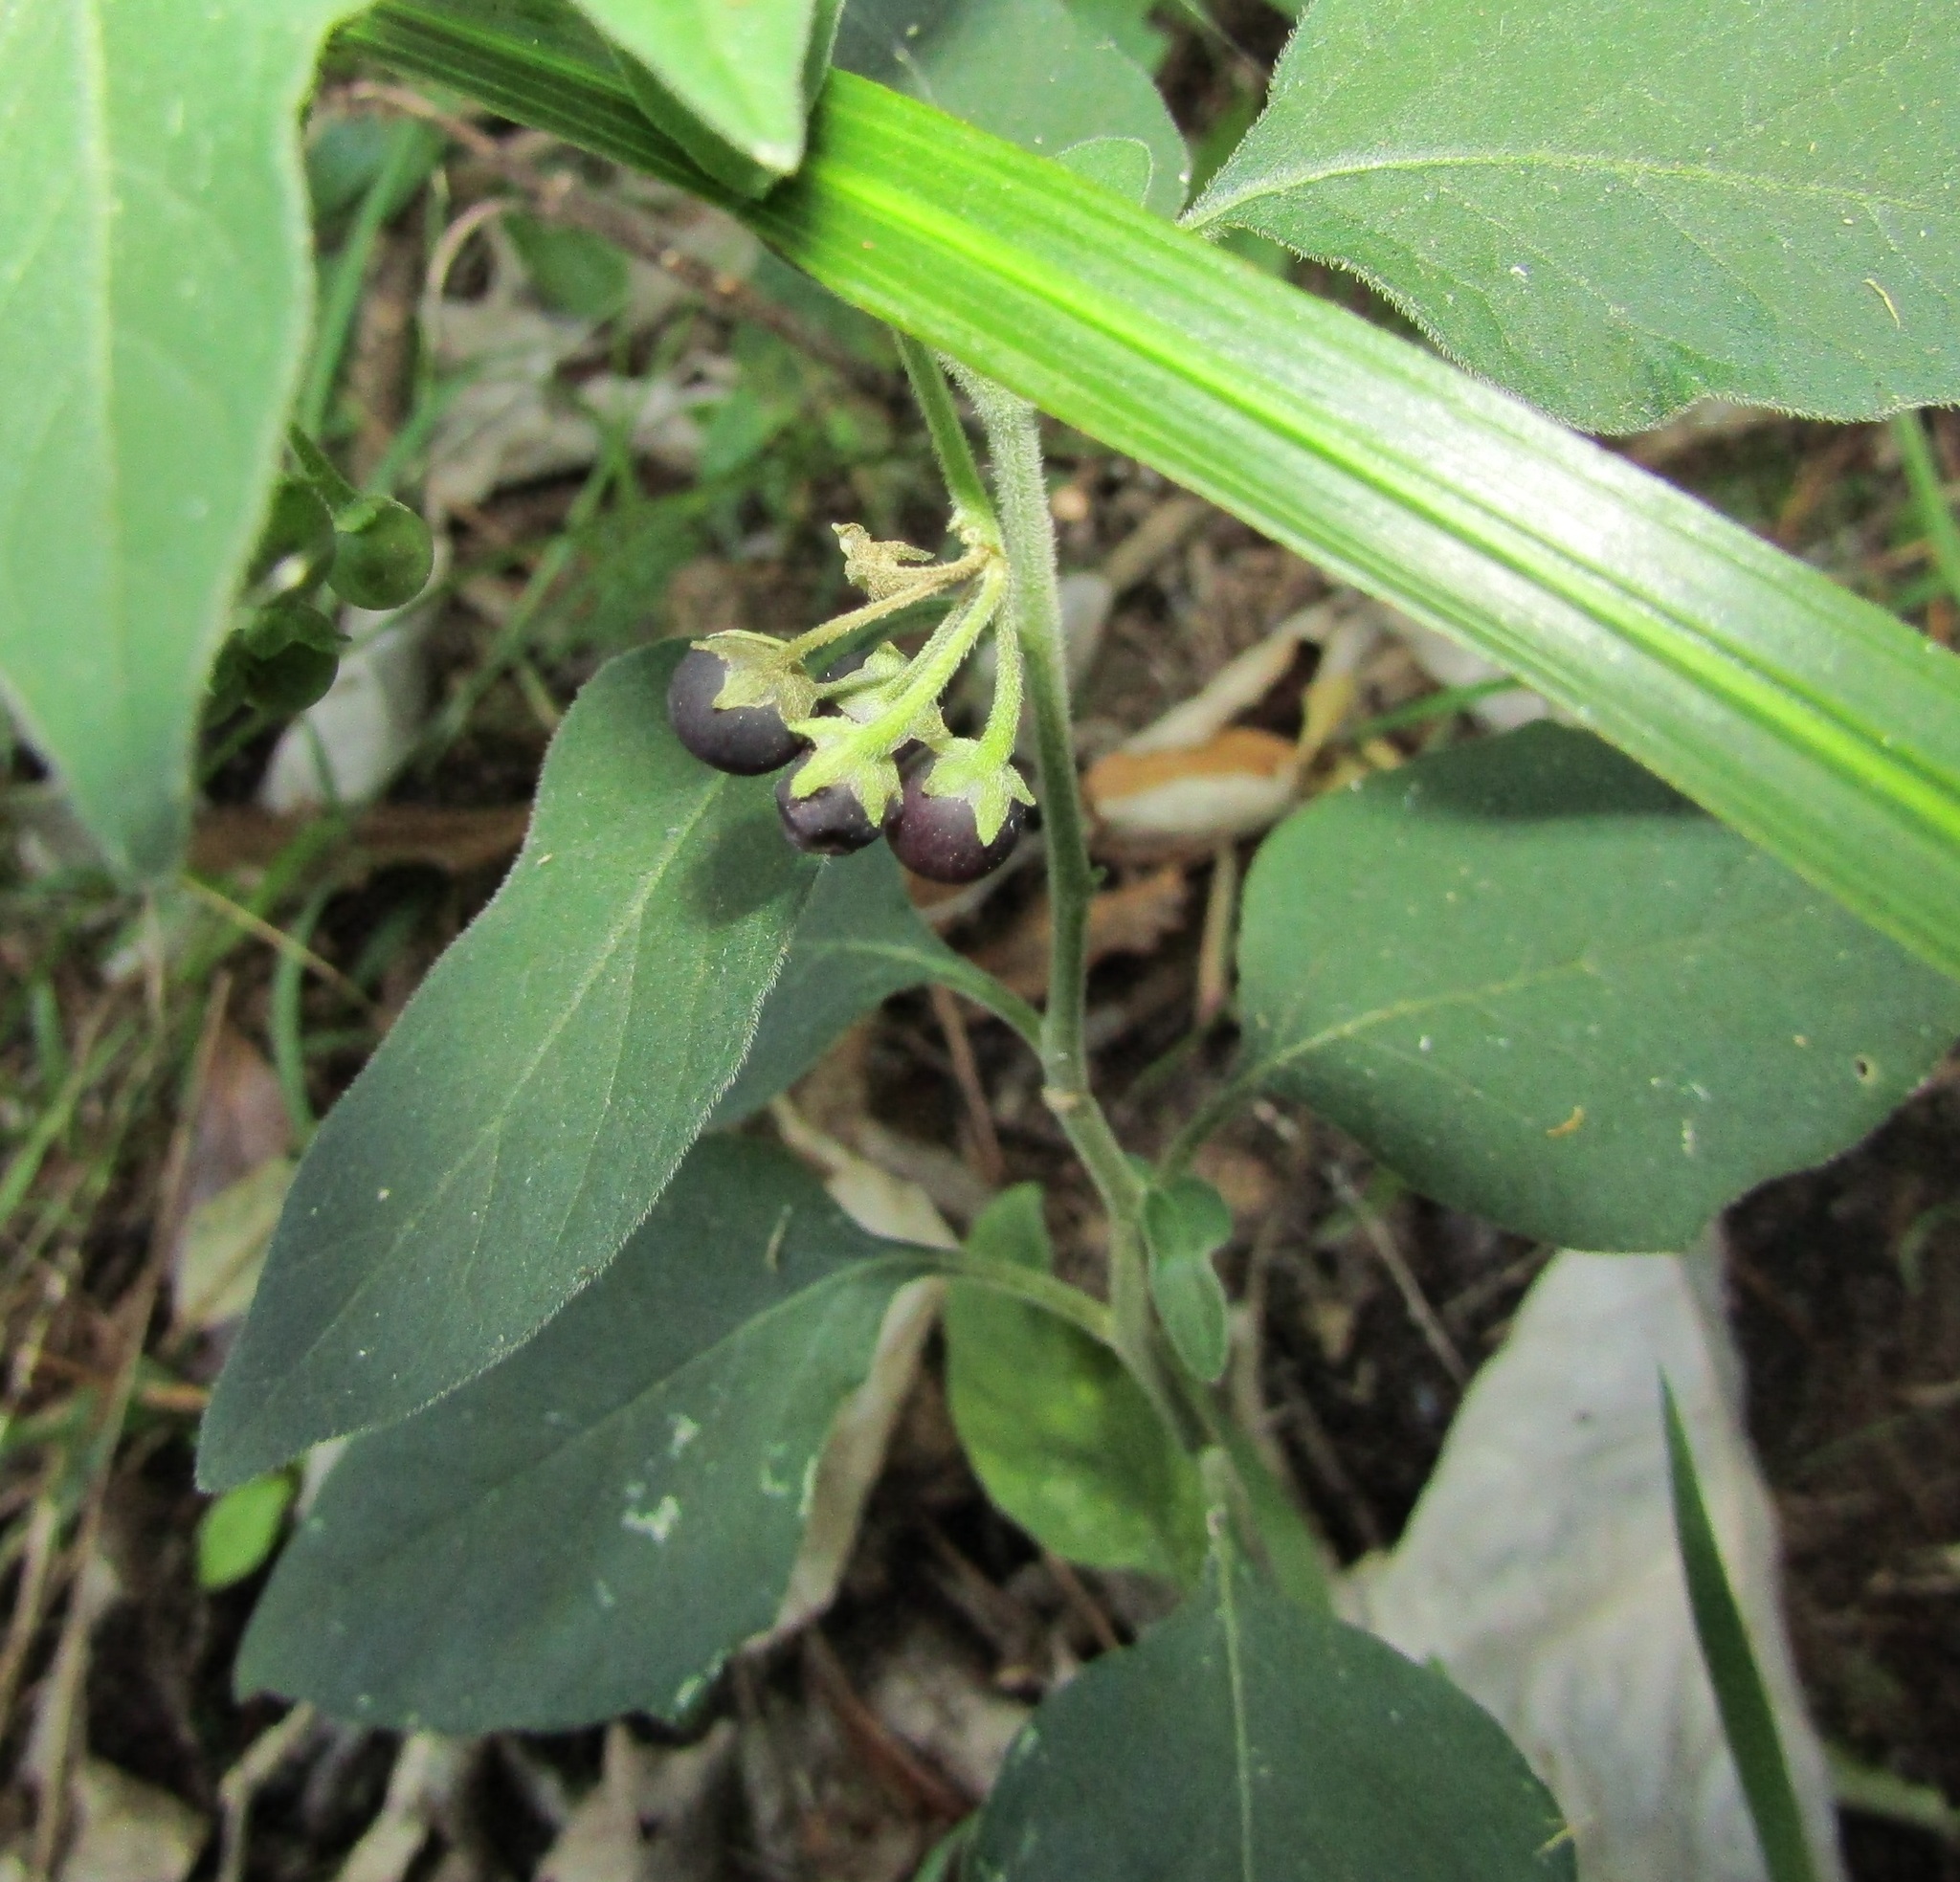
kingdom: Plantae
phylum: Tracheophyta
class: Magnoliopsida
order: Solanales
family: Solanaceae
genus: Solanum
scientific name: Solanum chenopodioides
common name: Tall nightshade
